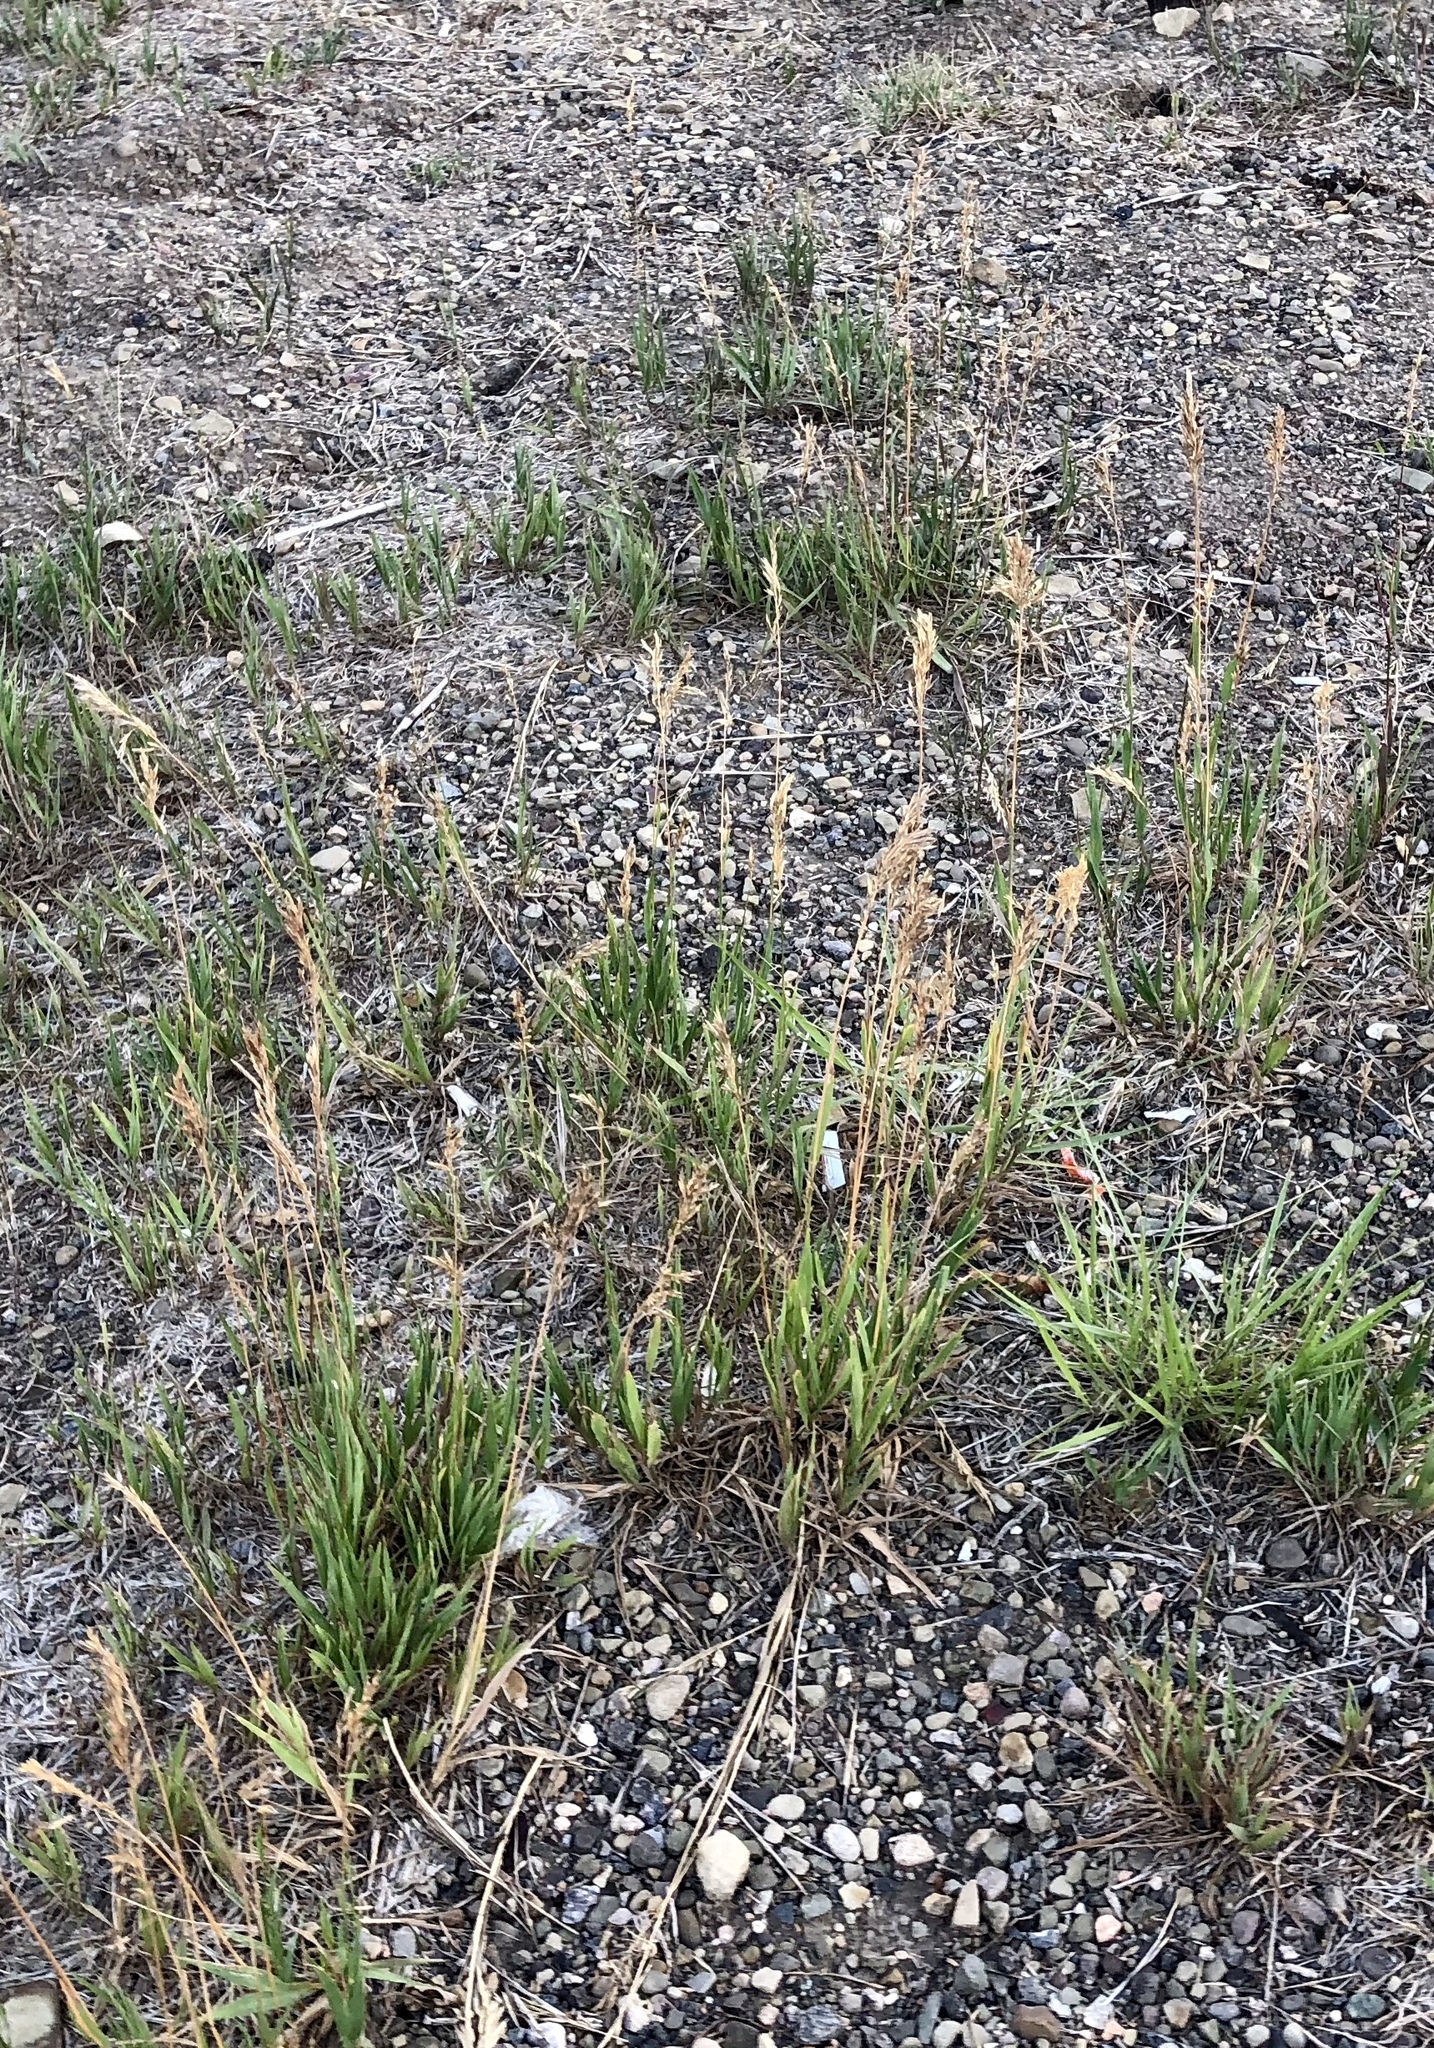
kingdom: Plantae
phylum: Tracheophyta
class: Liliopsida
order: Poales
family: Poaceae
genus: Bromus
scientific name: Bromus inermis
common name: Smooth brome
